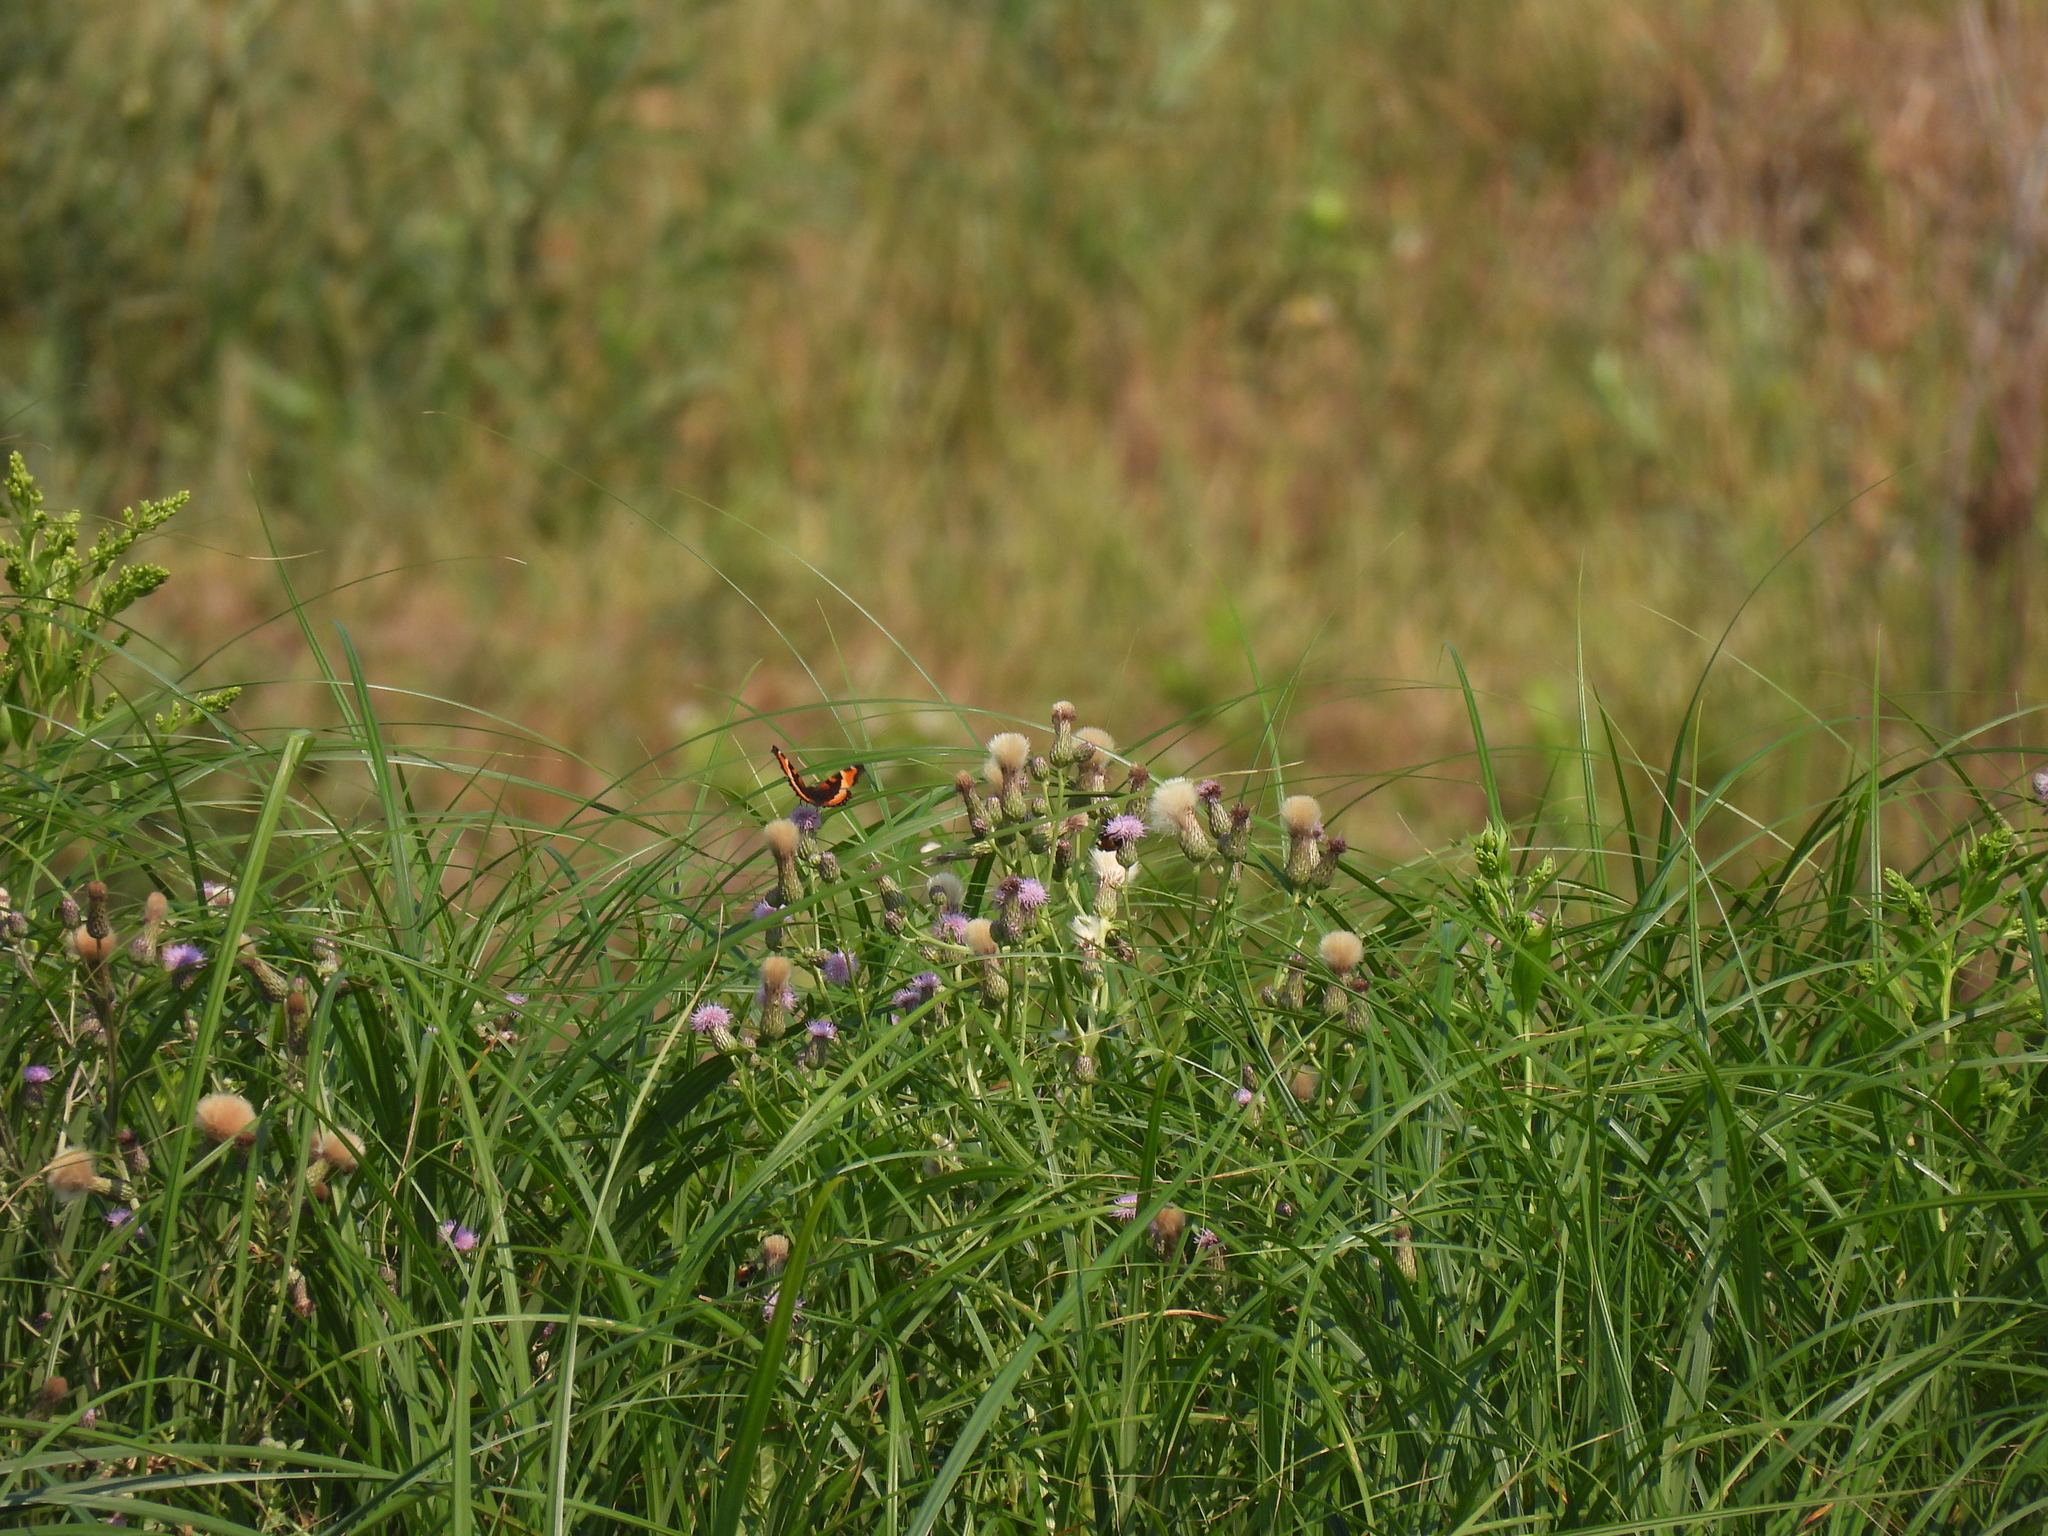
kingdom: Animalia
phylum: Arthropoda
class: Insecta
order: Lepidoptera
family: Nymphalidae
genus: Aglais
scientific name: Aglais milberti
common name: Milbert's tortoiseshell
